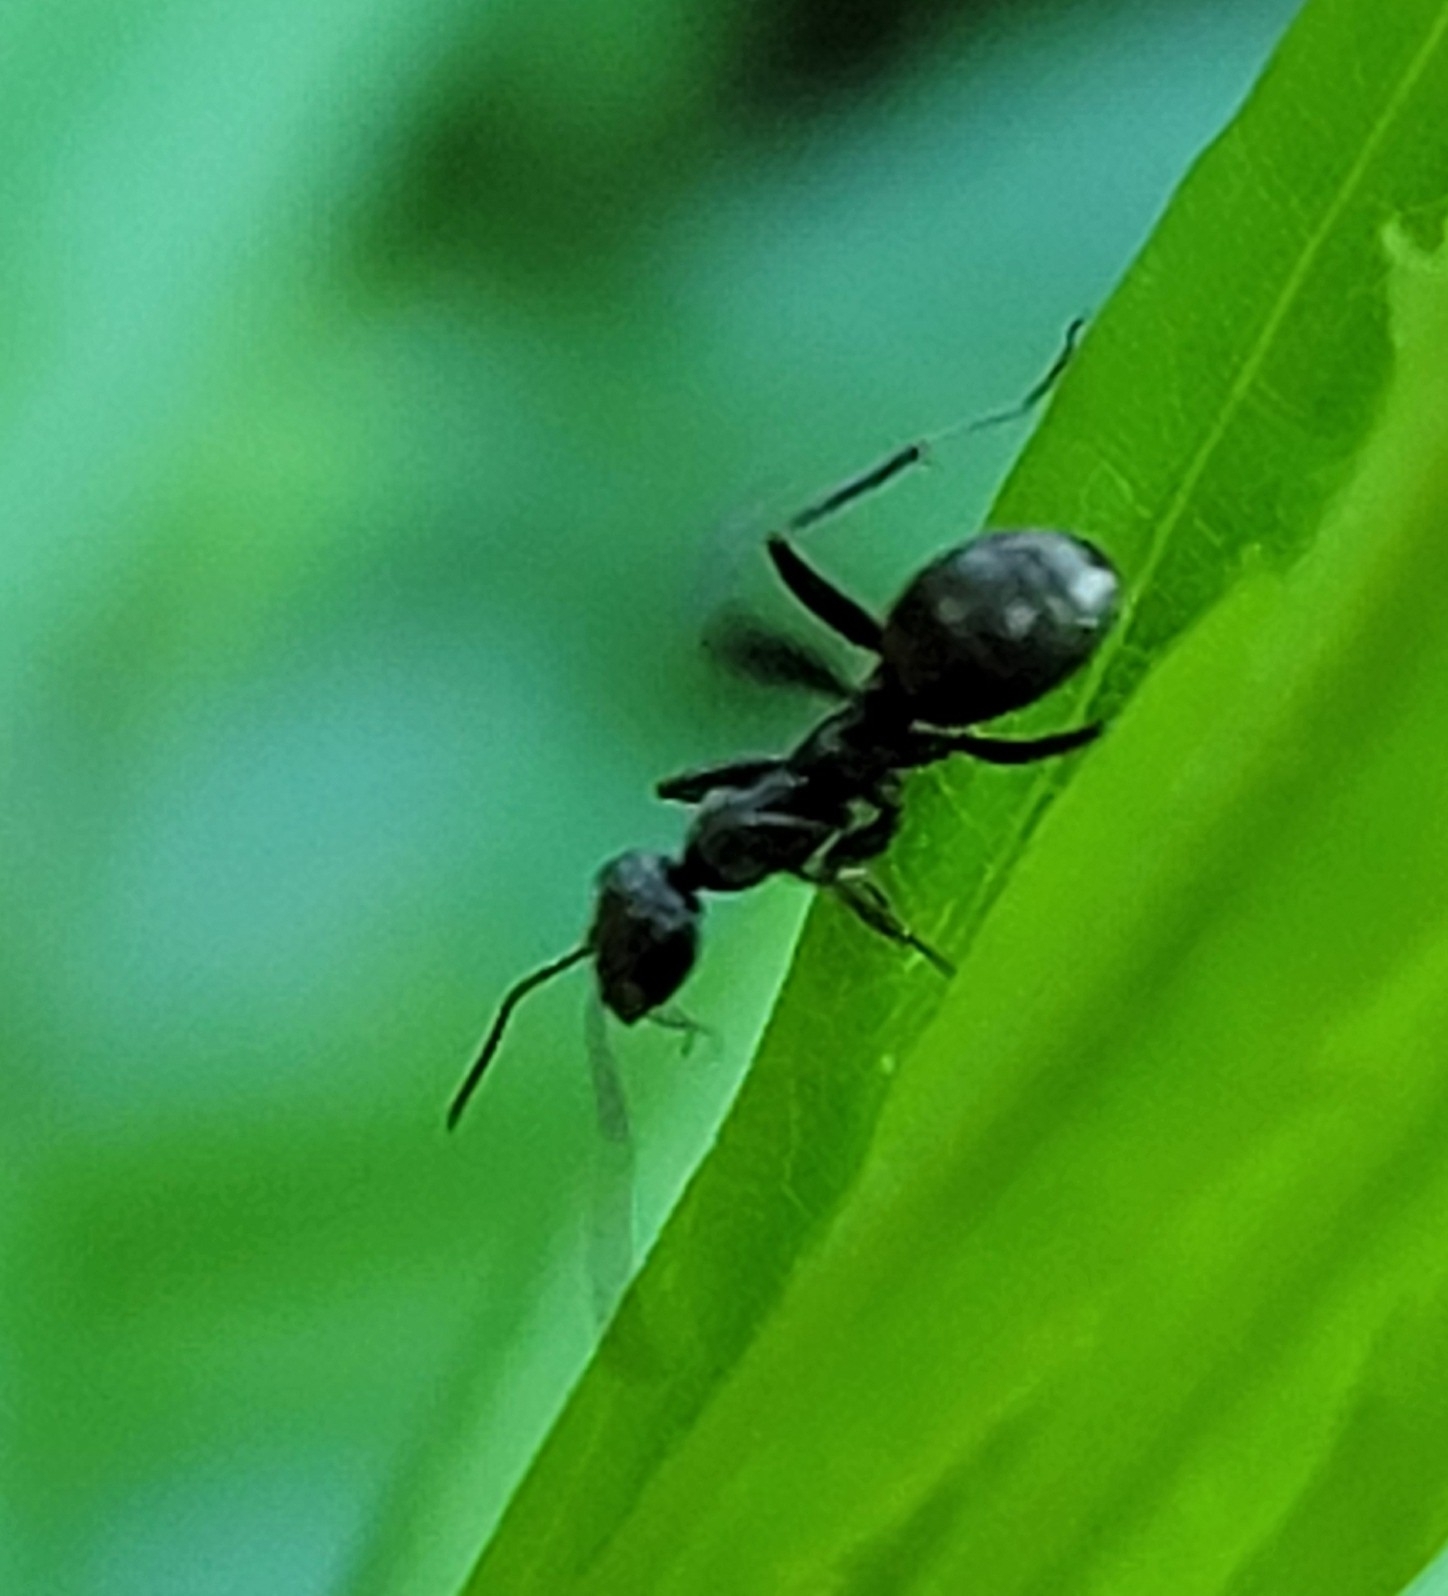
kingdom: Animalia
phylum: Arthropoda
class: Insecta
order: Hymenoptera
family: Formicidae
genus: Formica
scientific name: Formica
